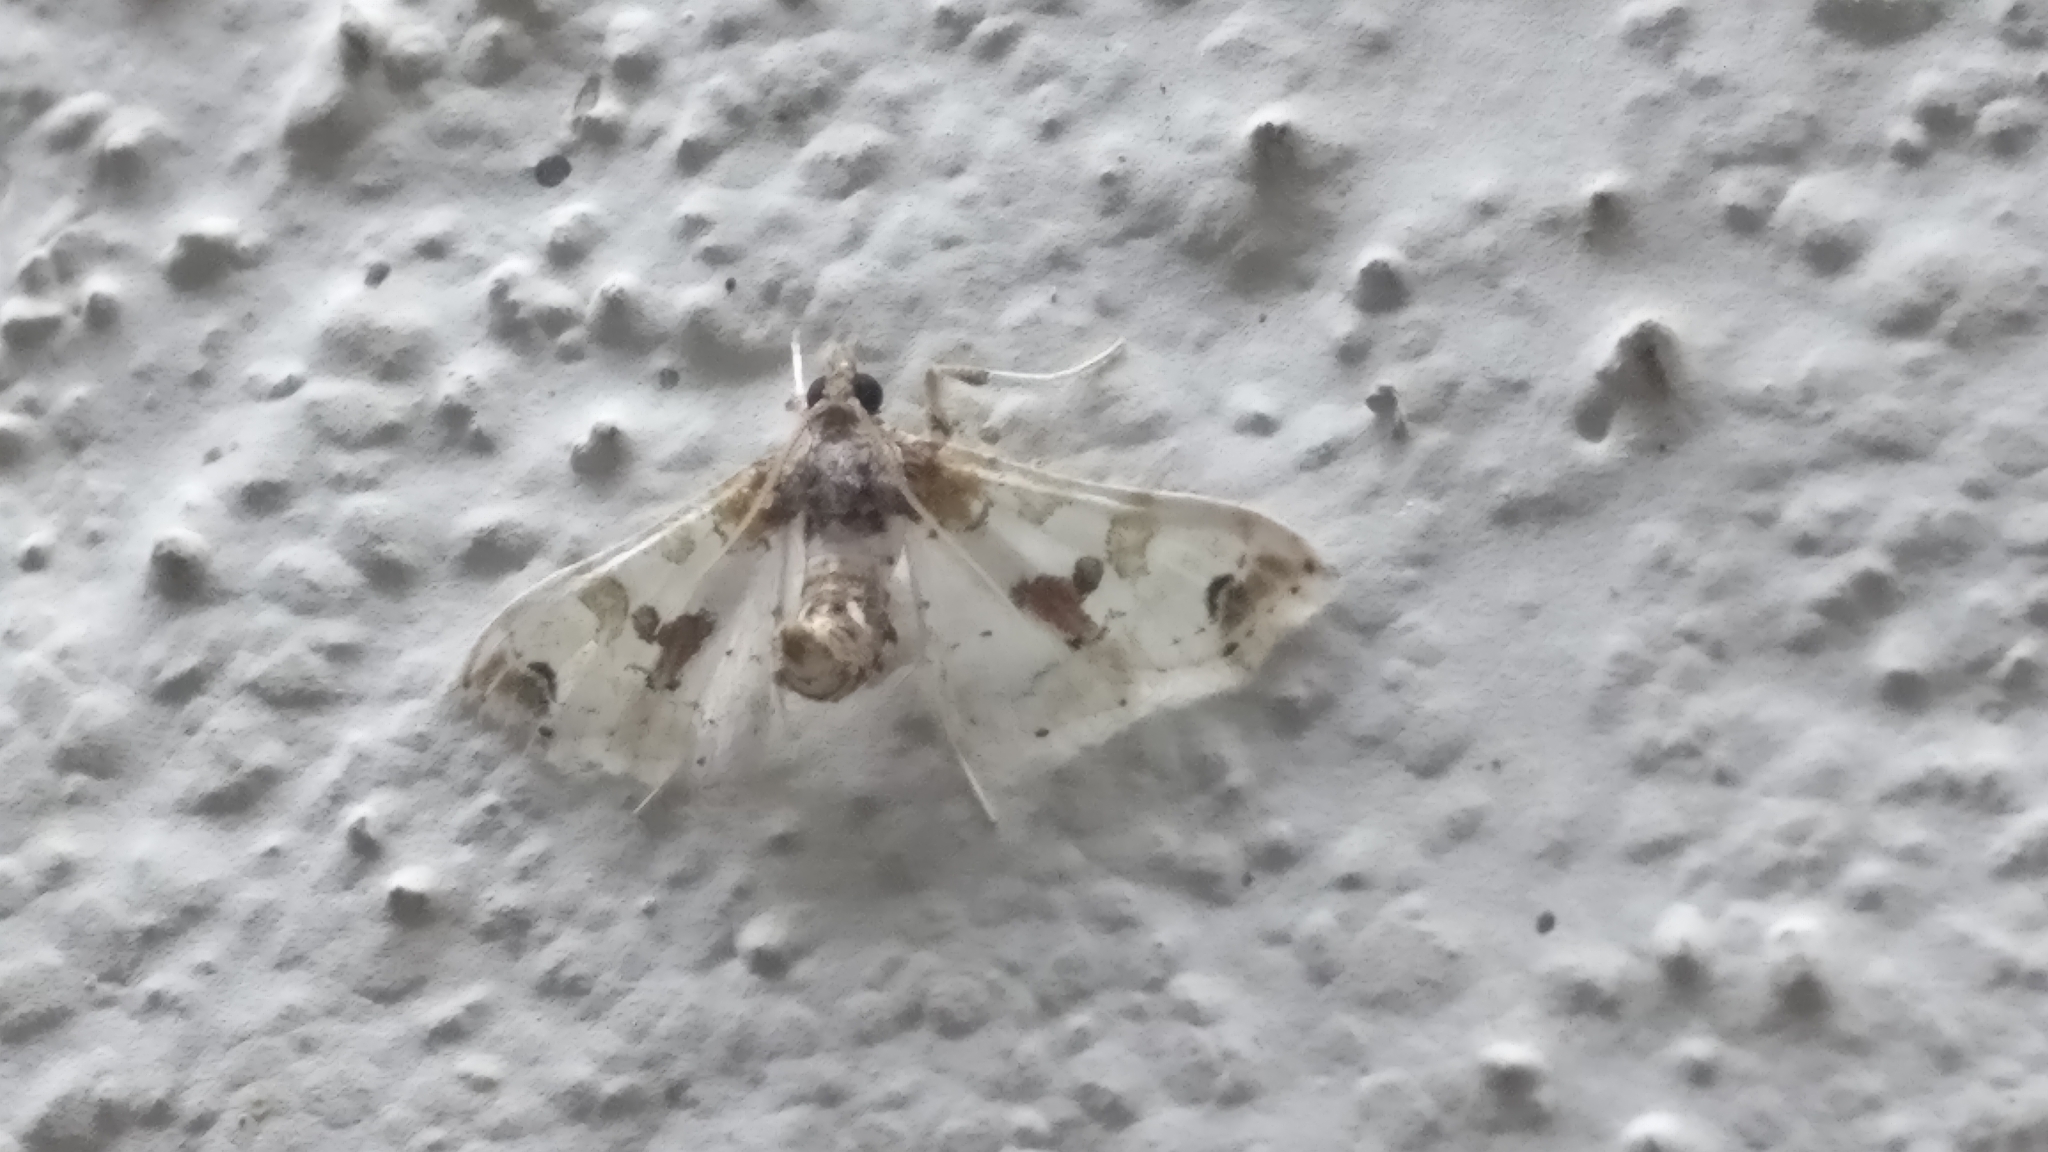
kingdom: Animalia
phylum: Arthropoda
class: Insecta
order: Lepidoptera
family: Crambidae
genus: Leucinodes
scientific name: Leucinodes orbonalis
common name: Aubergine pearl
